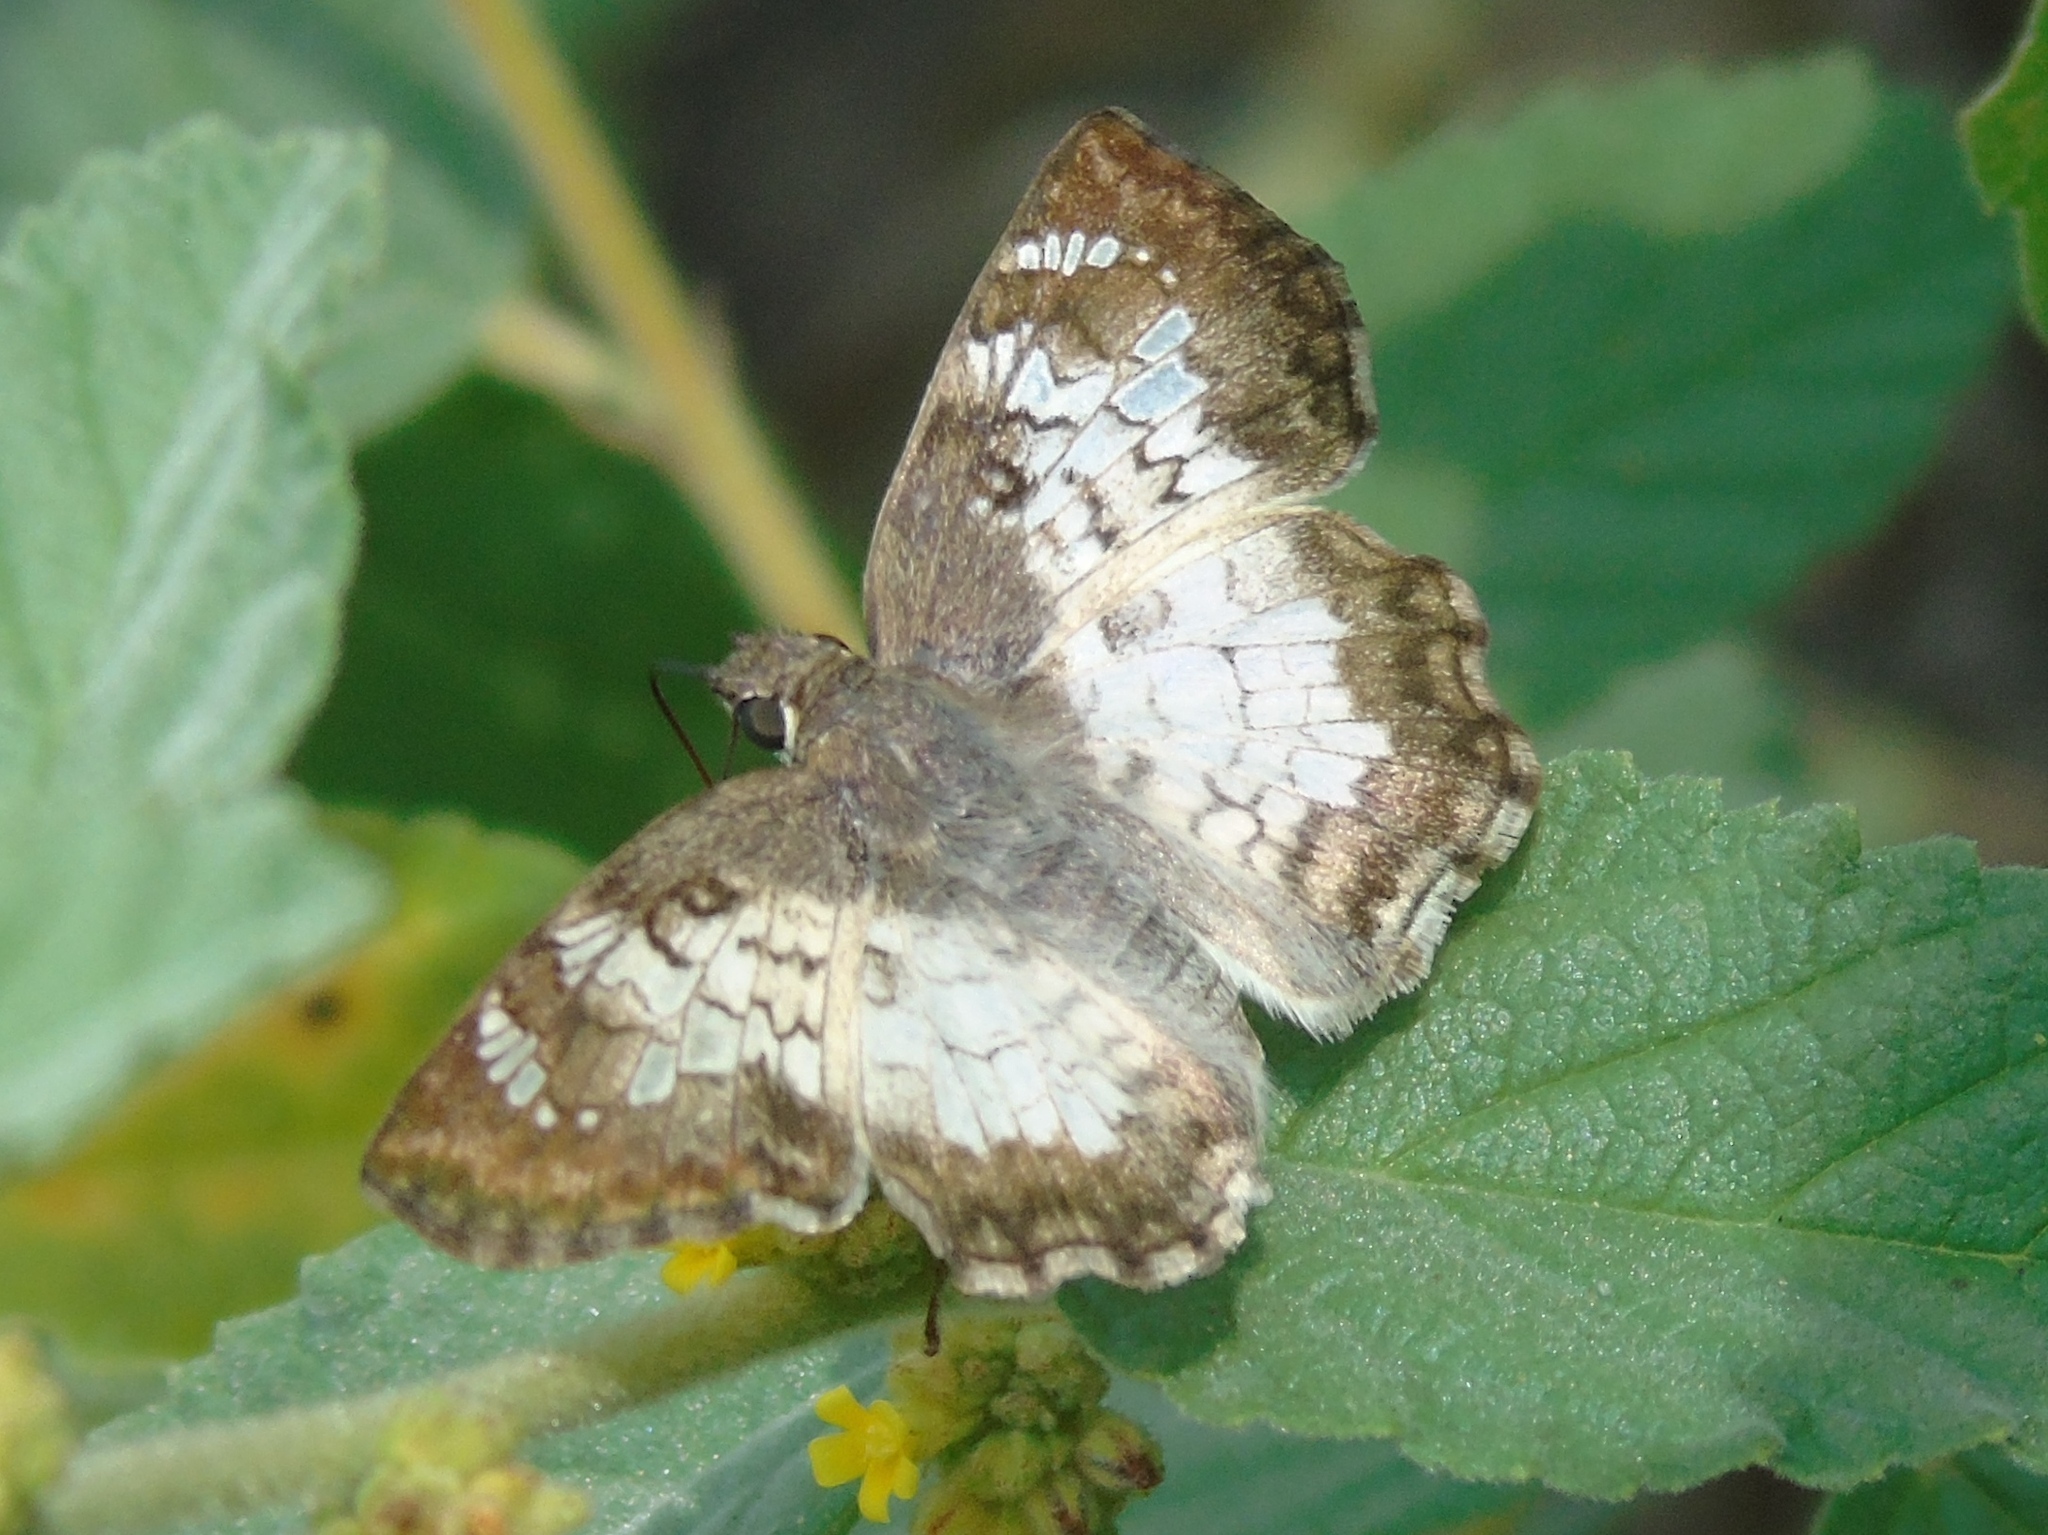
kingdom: Animalia
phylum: Arthropoda
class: Insecta
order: Lepidoptera
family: Hesperiidae
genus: Antigonus
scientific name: Antigonus emorsa
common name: White spurwing
